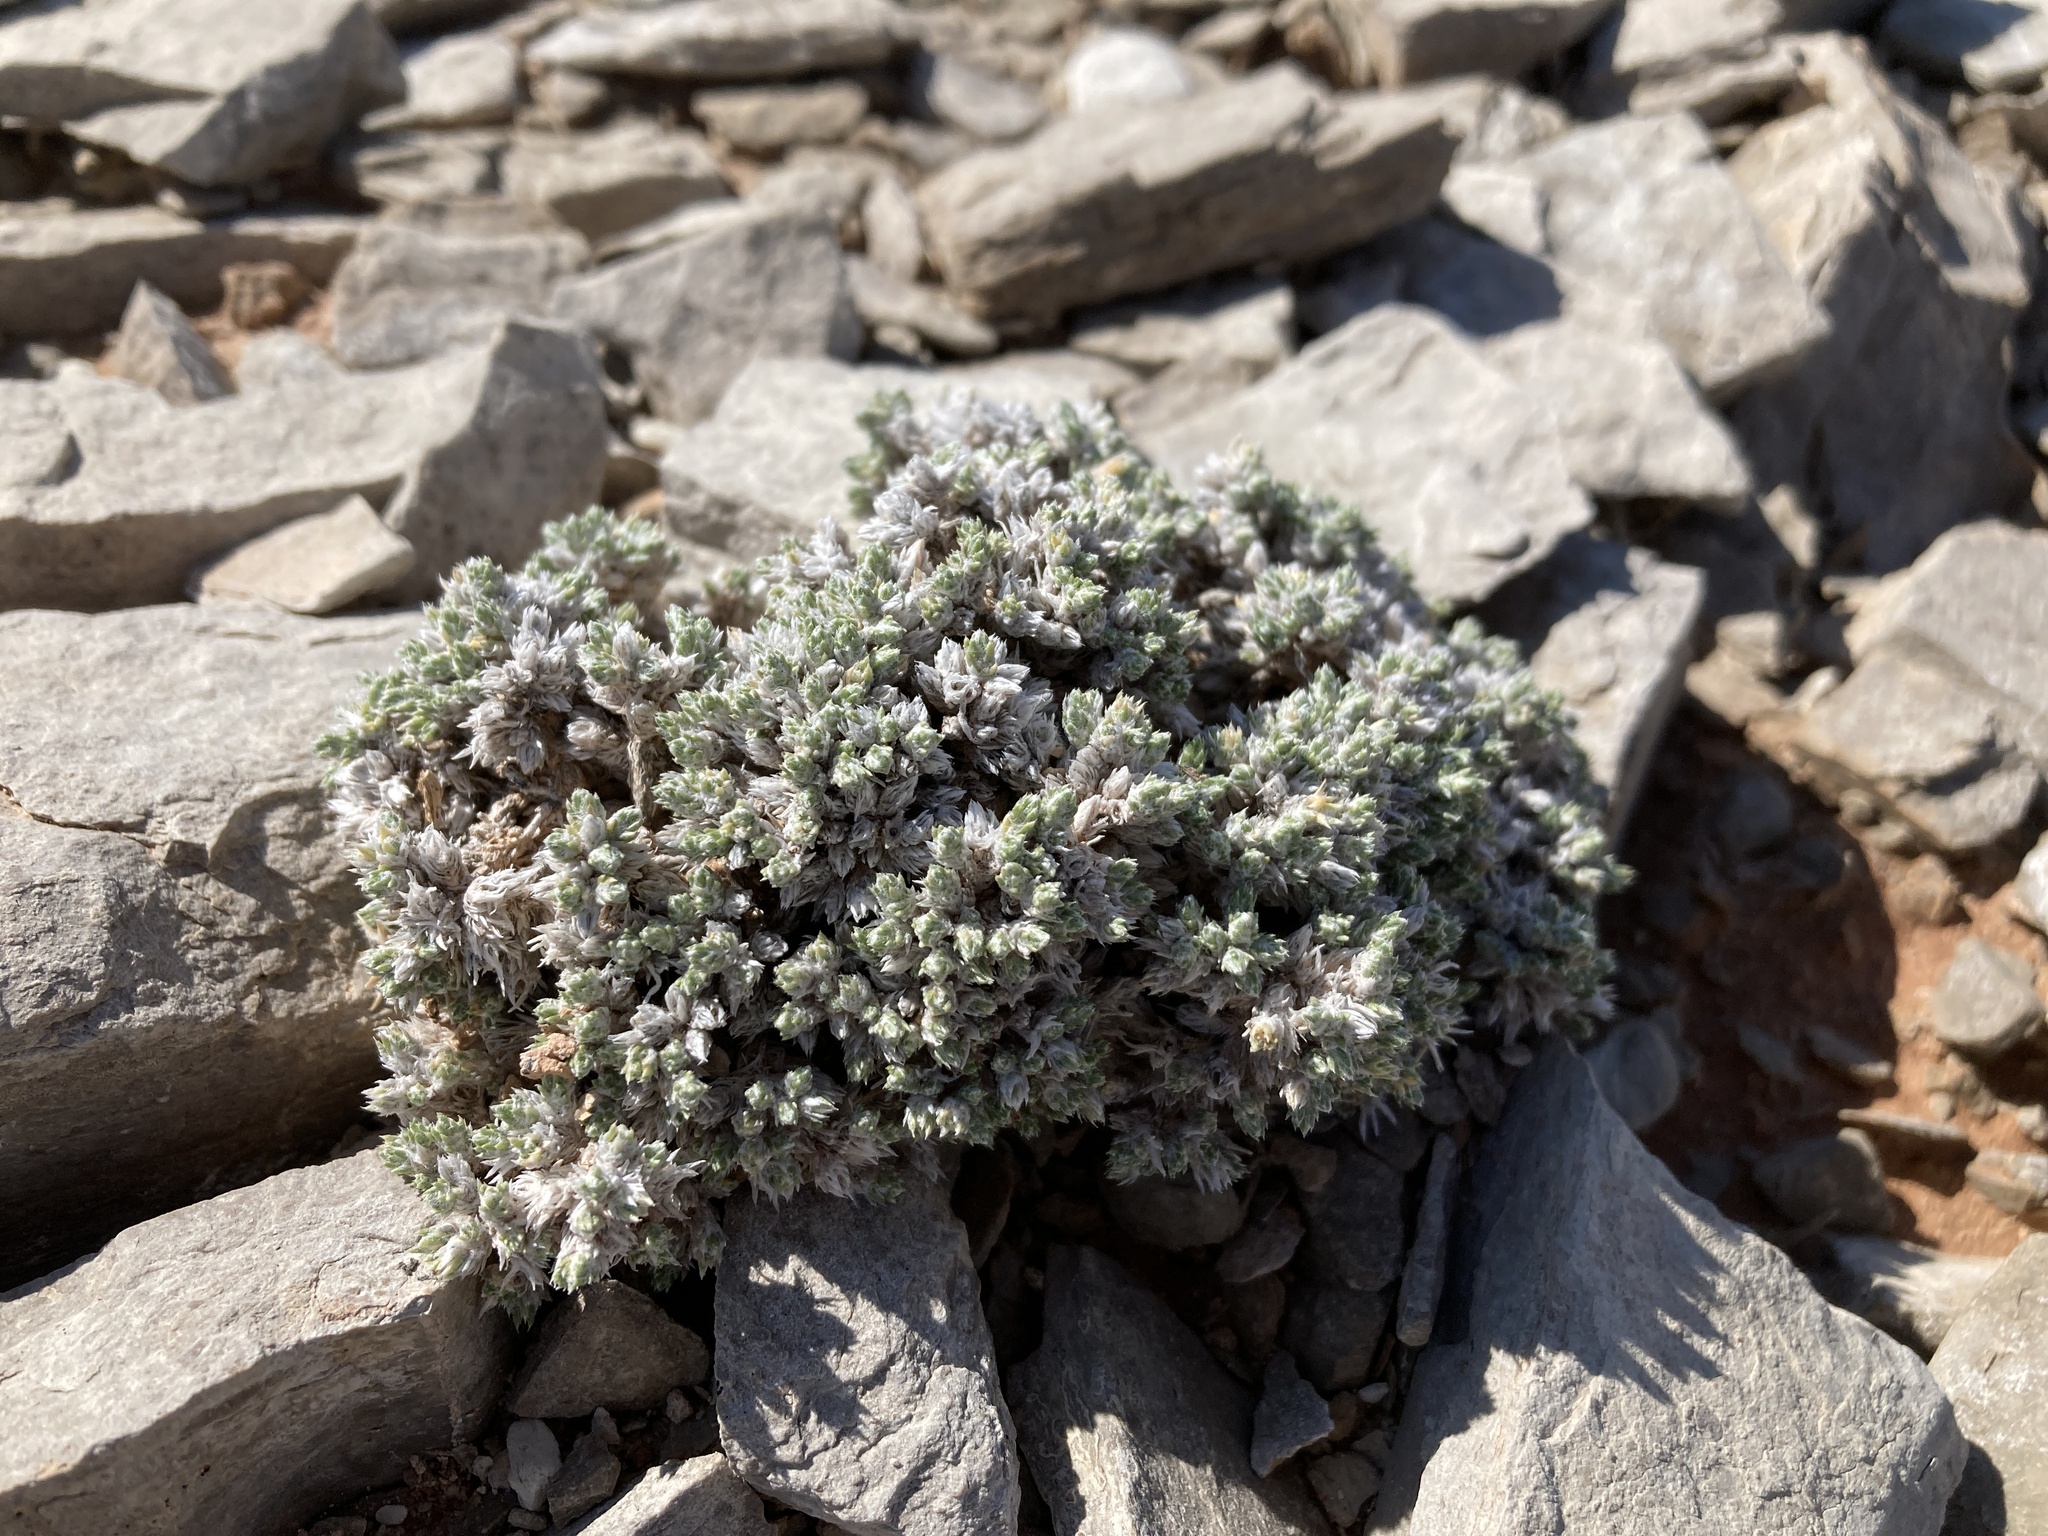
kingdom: Plantae
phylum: Tracheophyta
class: Magnoliopsida
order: Ericales
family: Polemoniaceae
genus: Phlox
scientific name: Phlox hoodii
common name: Moss phlox
